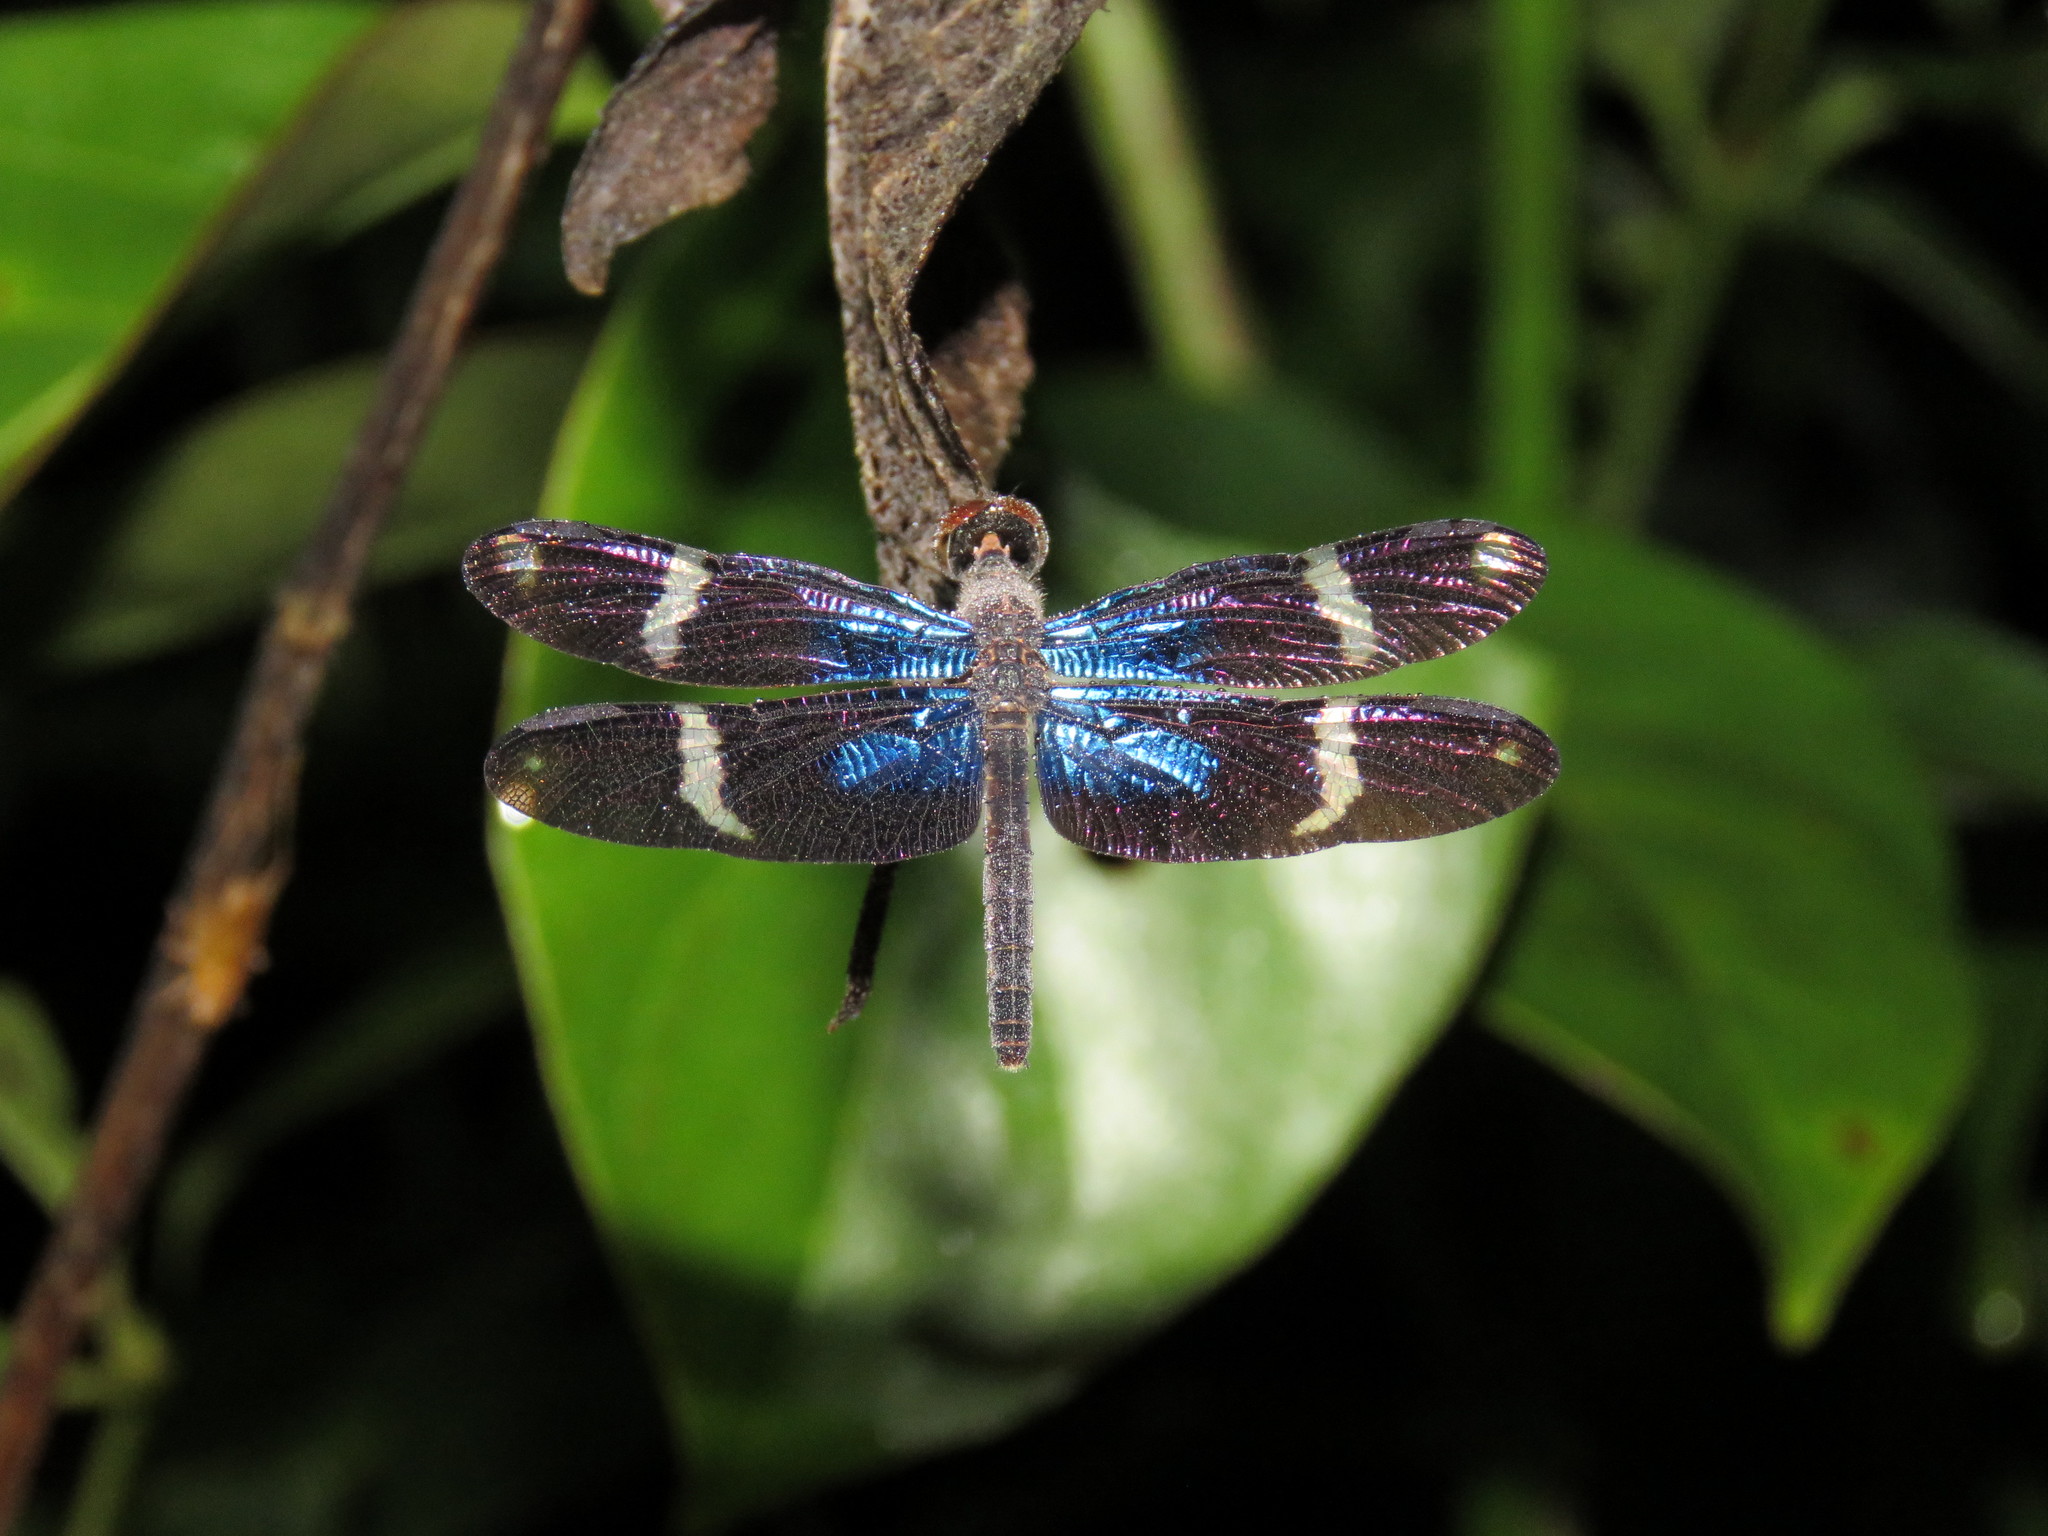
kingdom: Animalia
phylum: Arthropoda
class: Insecta
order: Odonata
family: Libellulidae
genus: Zenithoptera
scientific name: Zenithoptera fasciata
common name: Rainforest bluewing
